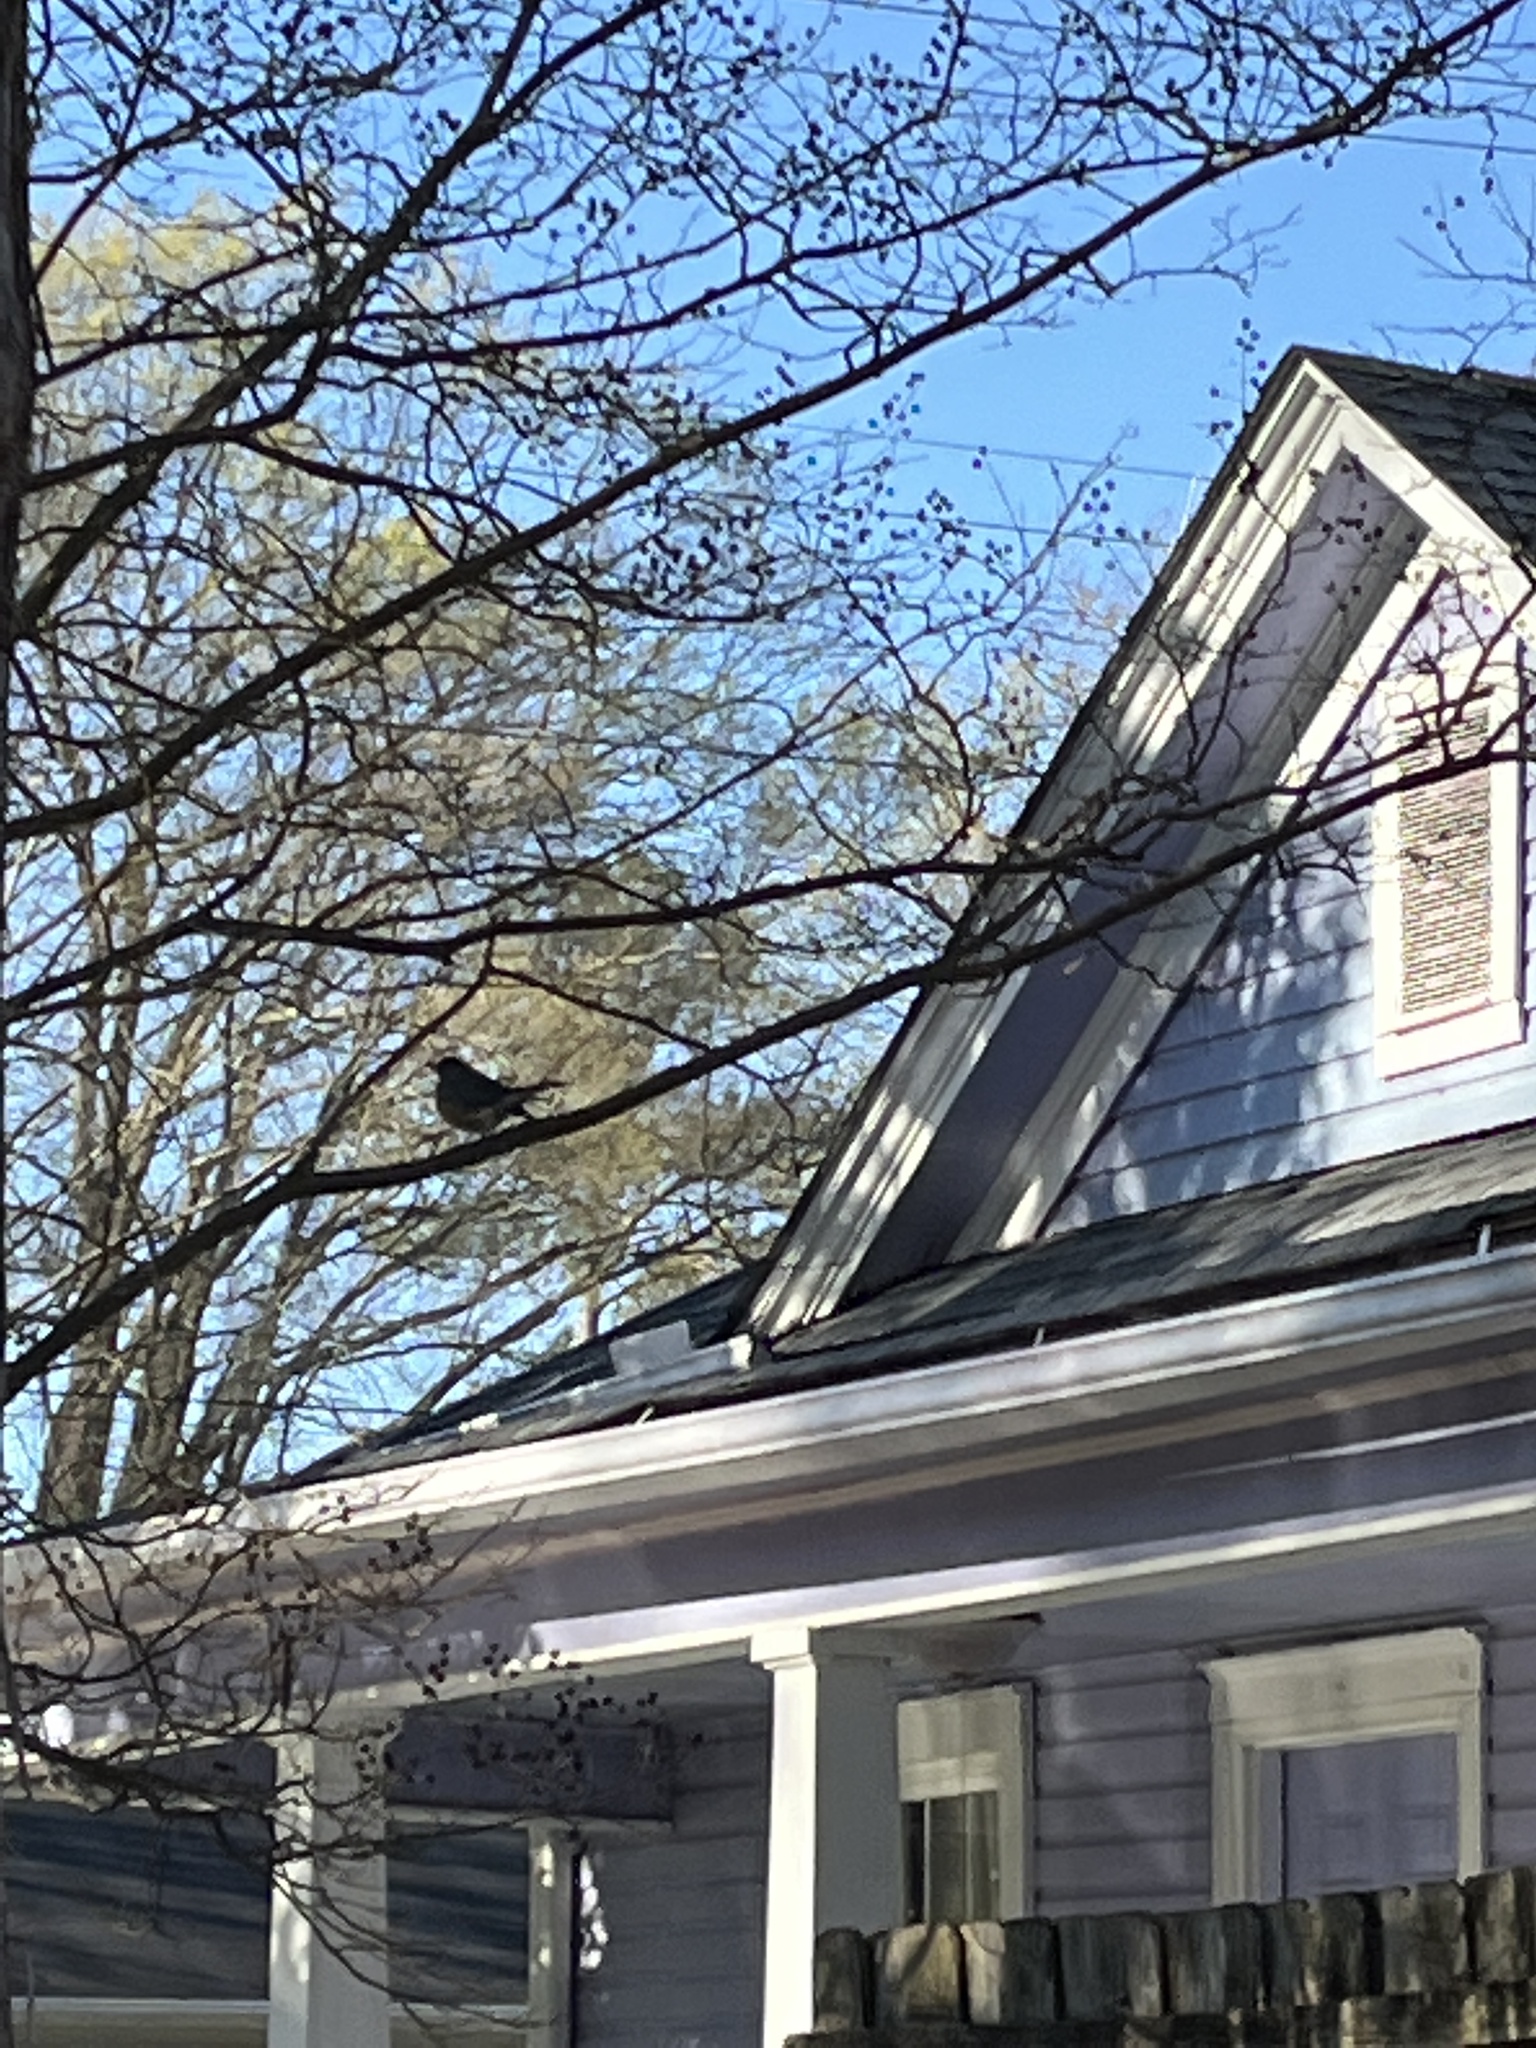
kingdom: Animalia
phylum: Chordata
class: Aves
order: Passeriformes
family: Turdidae
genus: Turdus
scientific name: Turdus migratorius
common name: American robin
